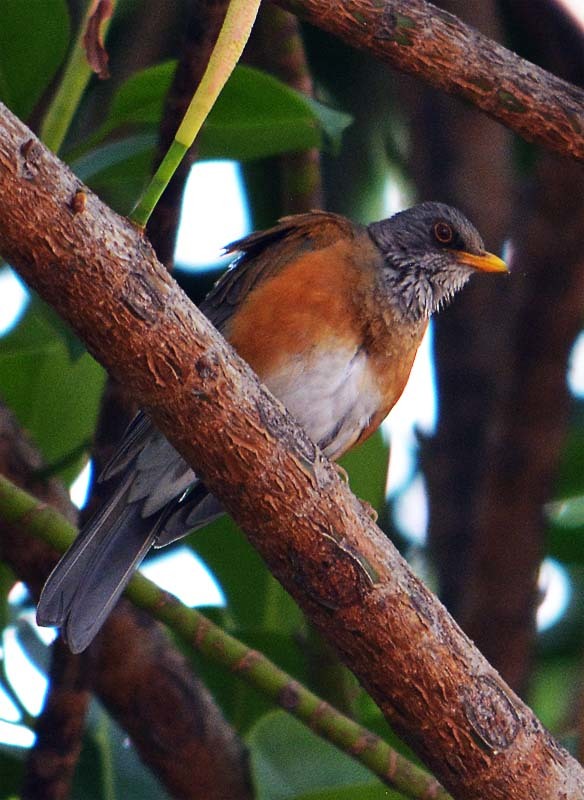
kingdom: Animalia
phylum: Chordata
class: Aves
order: Passeriformes
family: Turdidae
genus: Turdus
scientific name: Turdus rufopalliatus
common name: Rufous-backed robin
